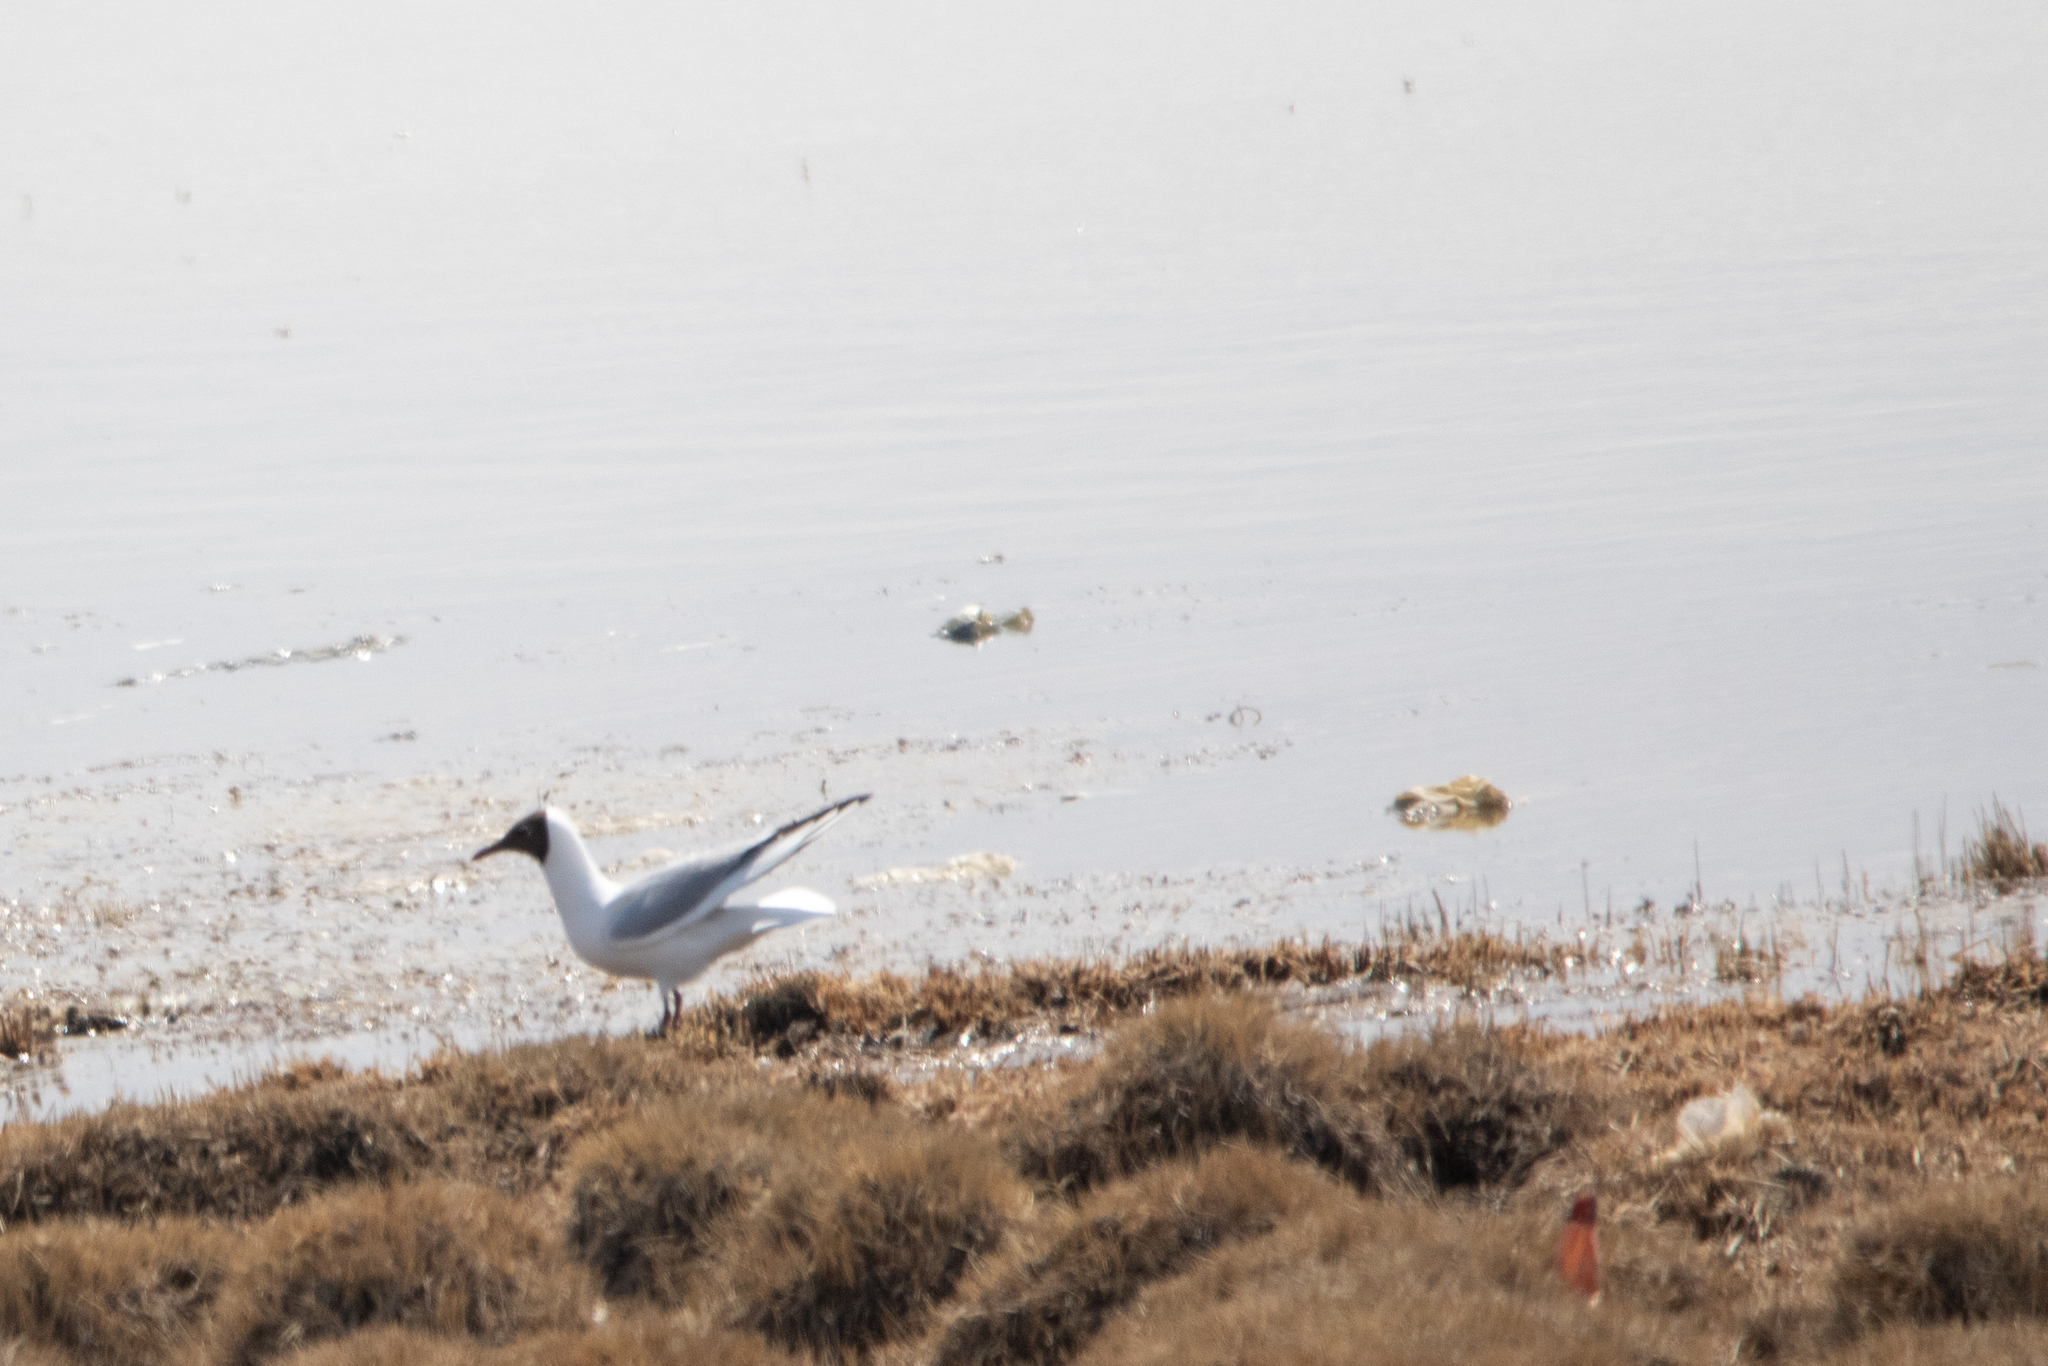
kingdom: Animalia
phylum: Chordata
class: Aves
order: Charadriiformes
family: Laridae
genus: Chroicocephalus
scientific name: Chroicocephalus ridibundus
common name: Black-headed gull
